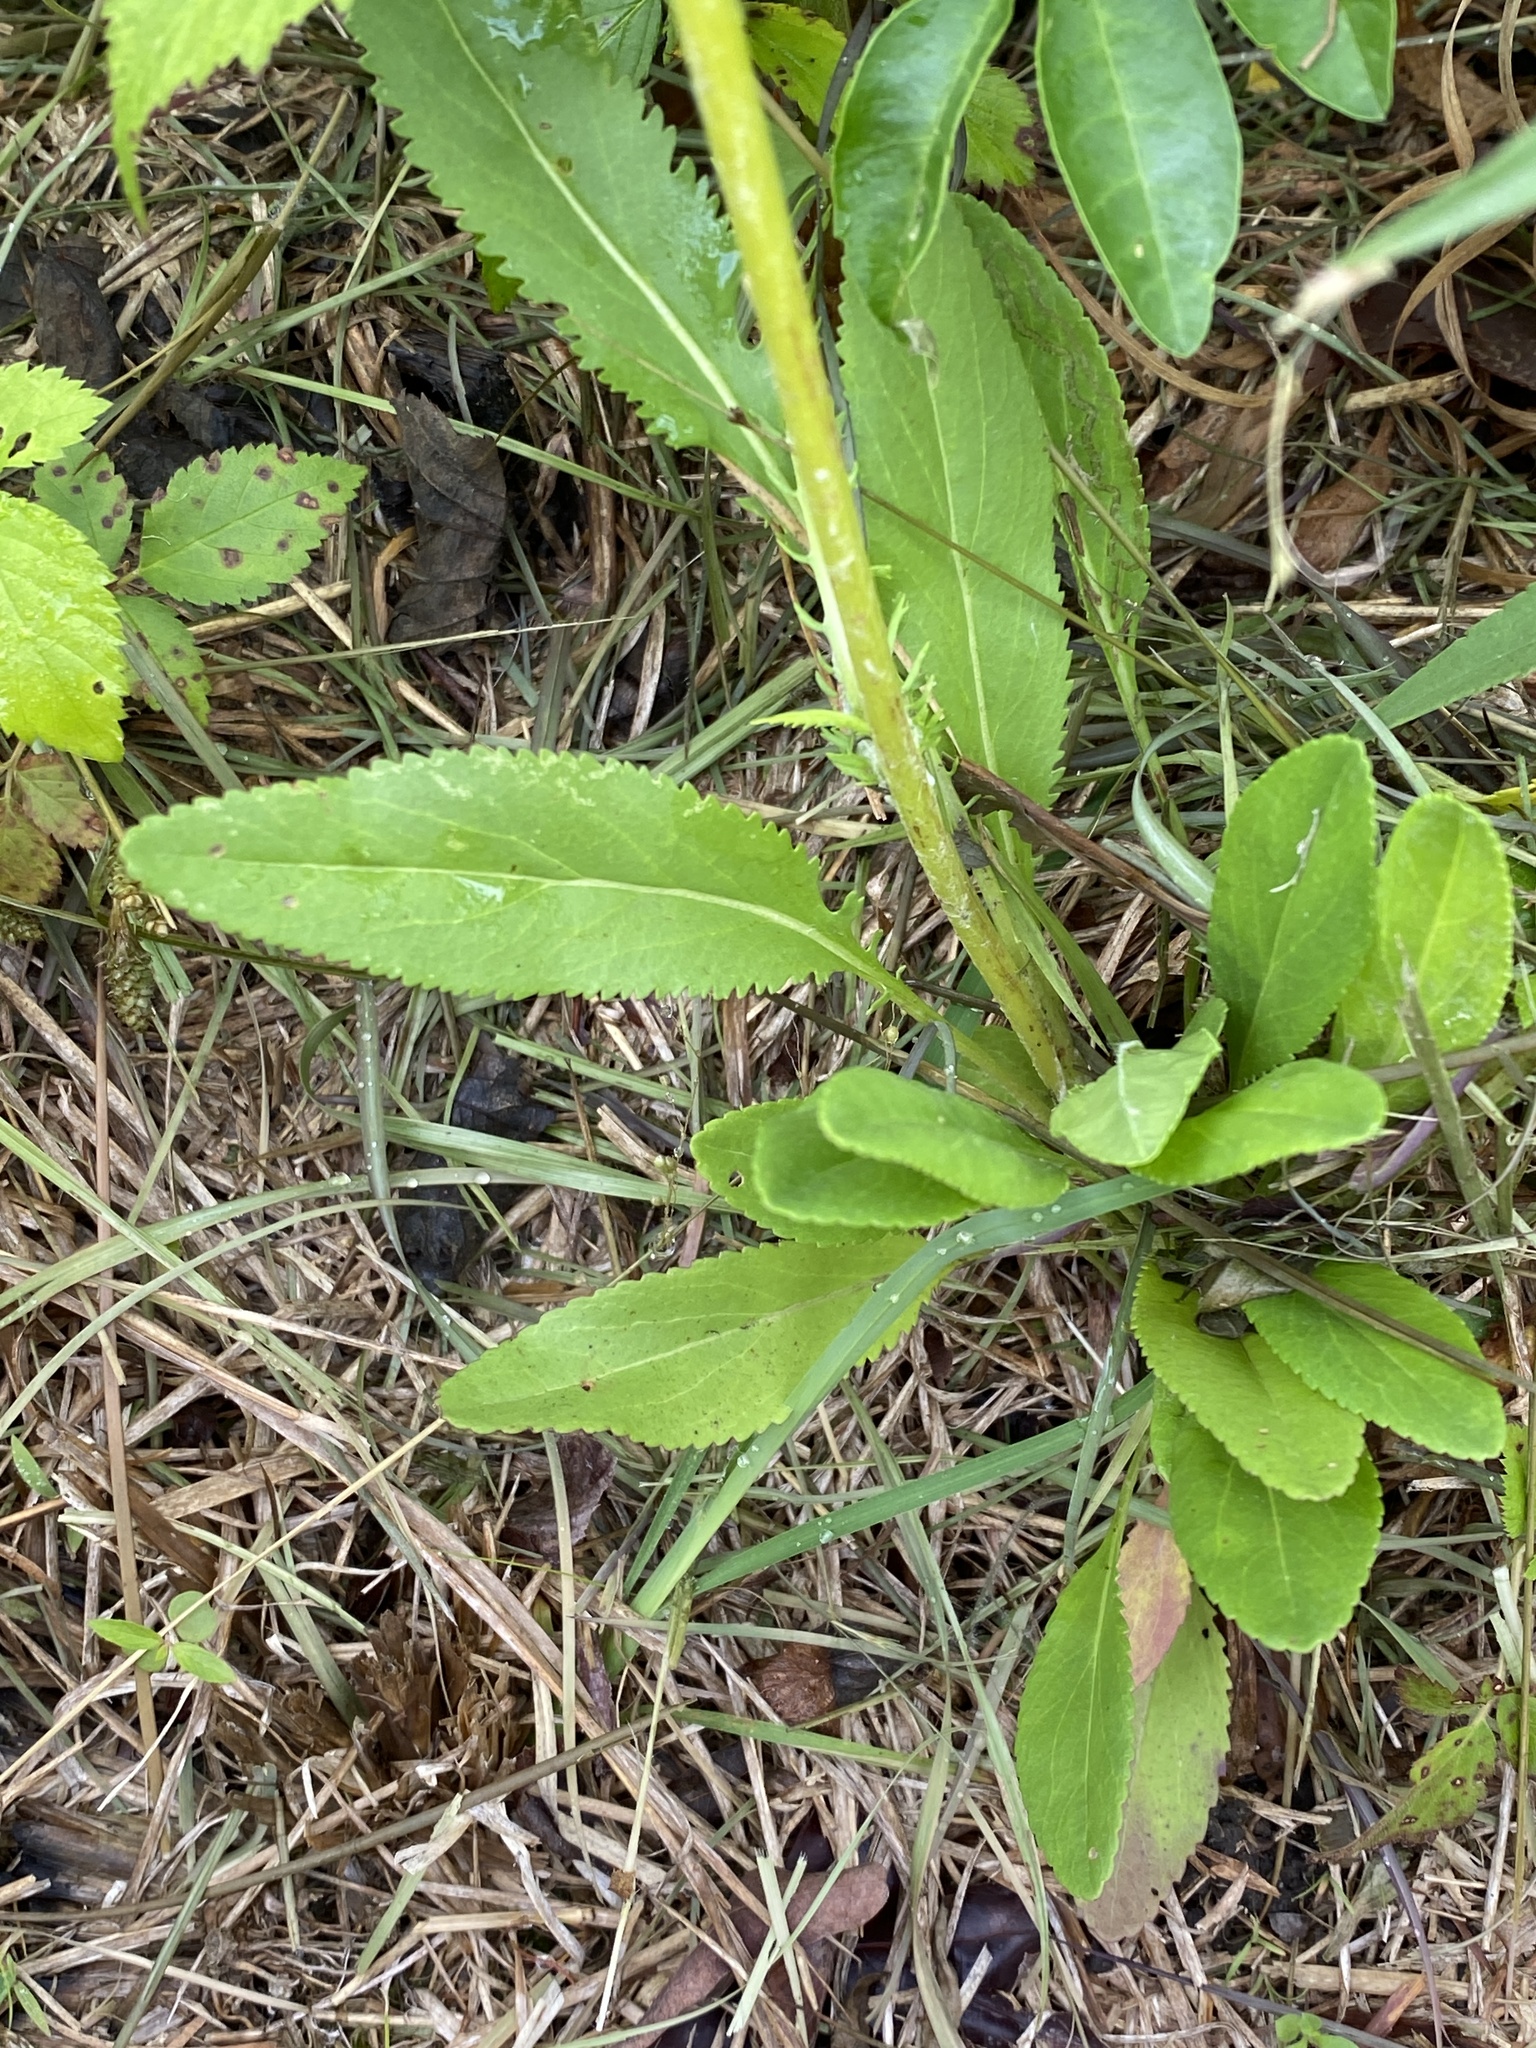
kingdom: Plantae
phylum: Tracheophyta
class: Magnoliopsida
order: Asterales
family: Asteraceae
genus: Packera
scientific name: Packera anonyma
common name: Small ragwort
